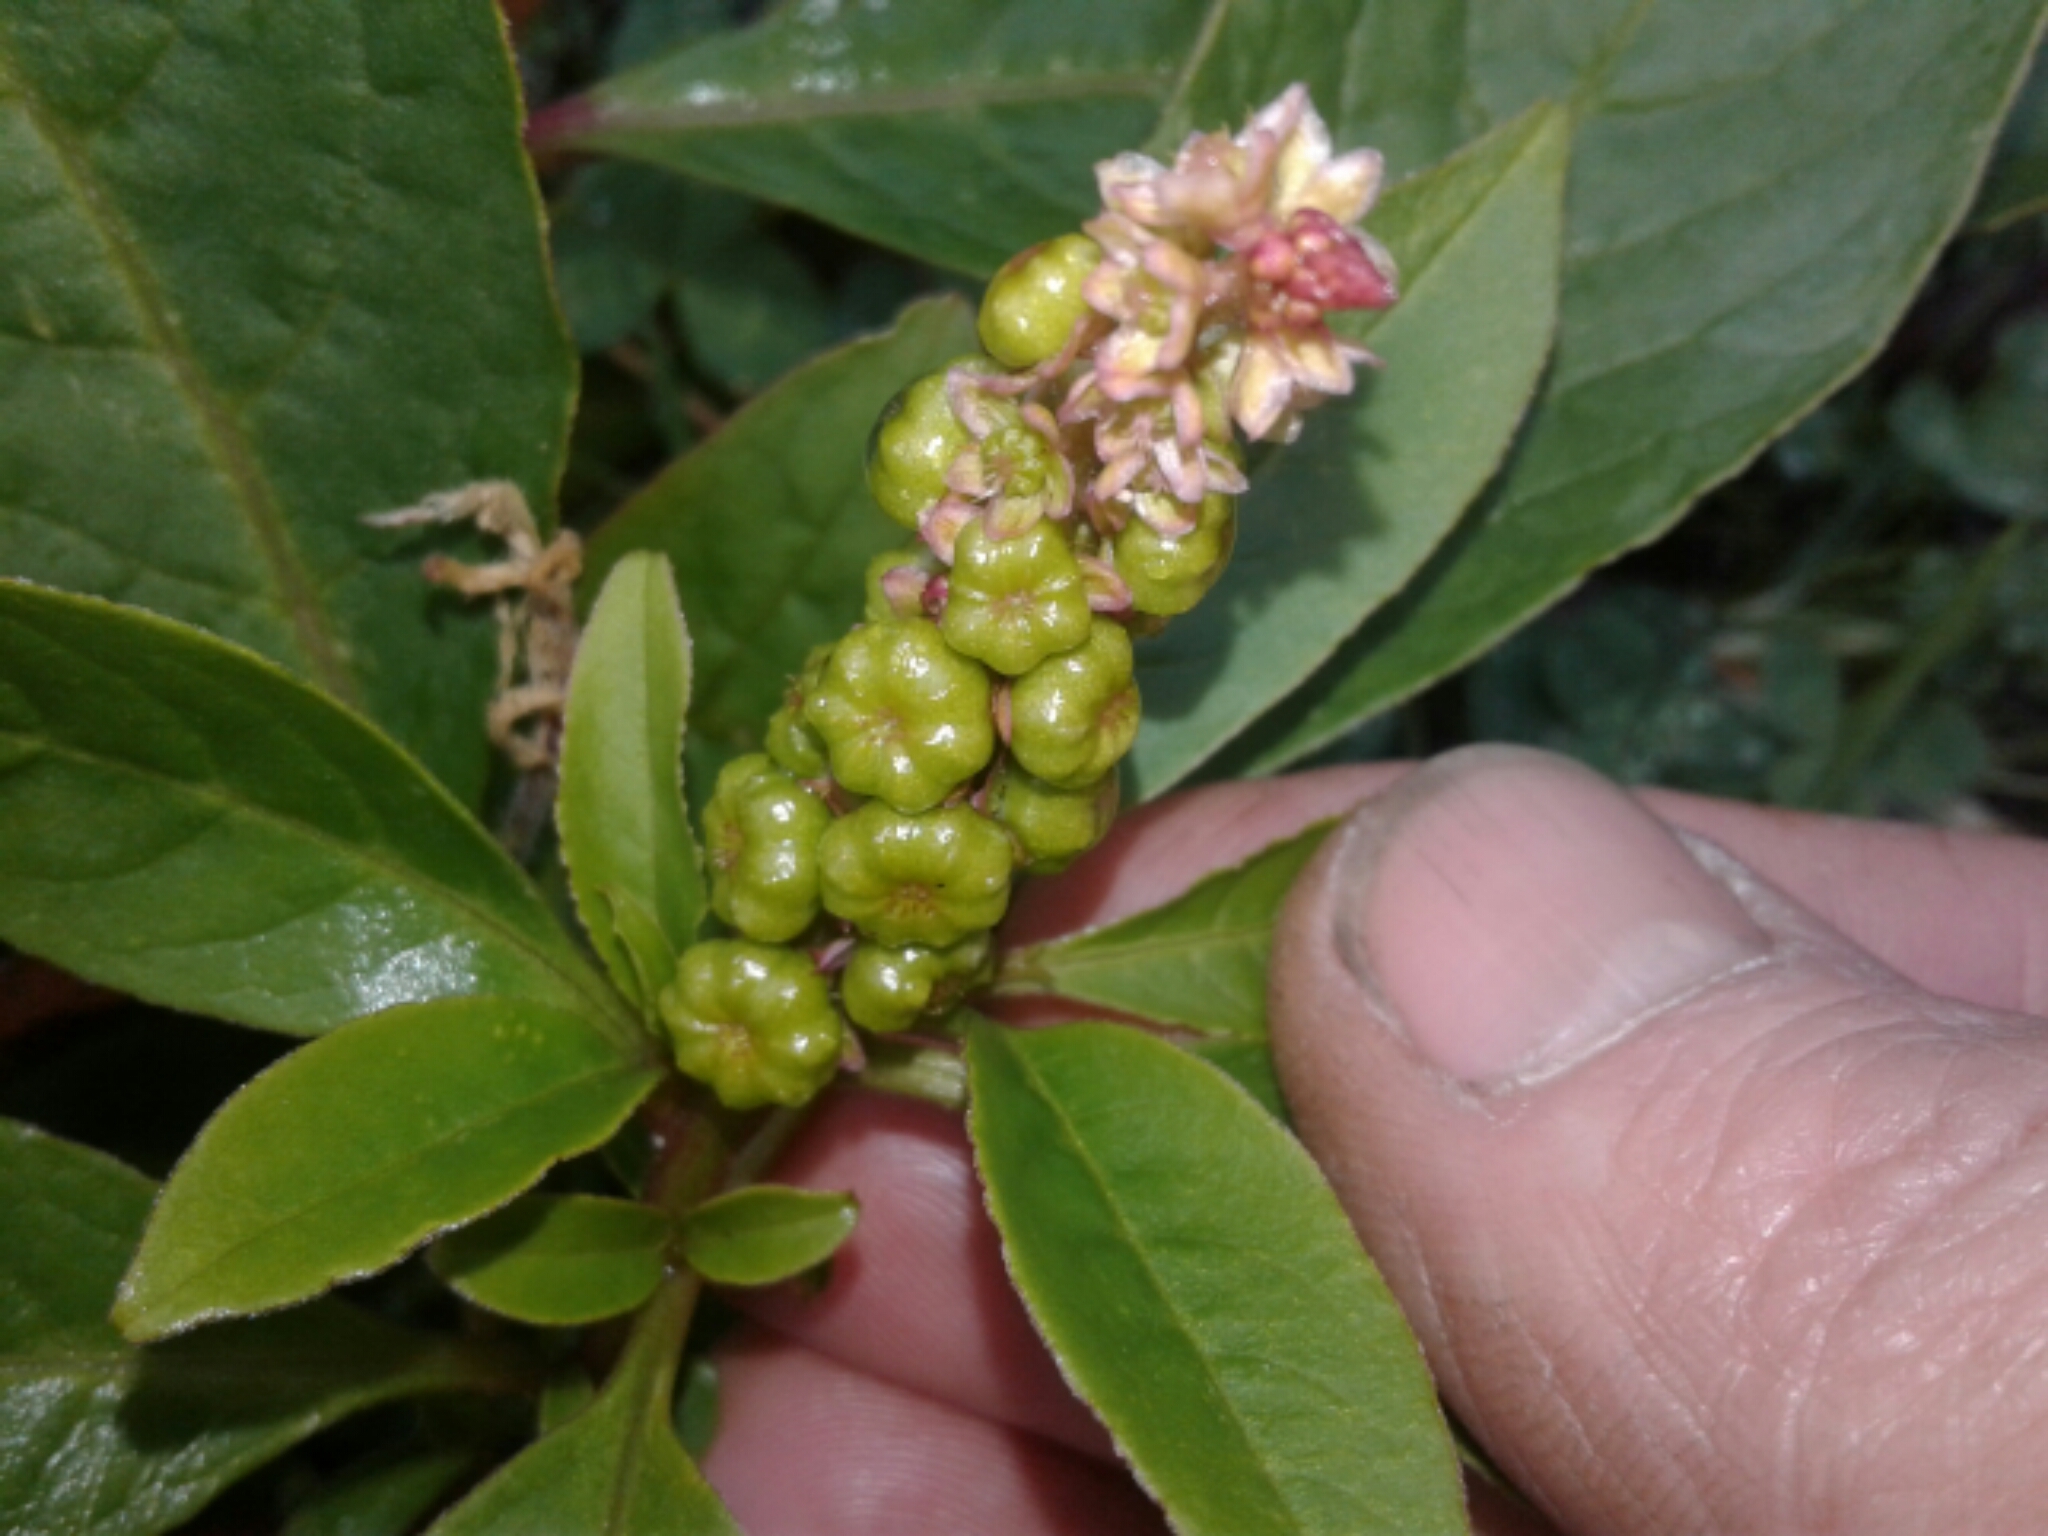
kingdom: Plantae
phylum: Tracheophyta
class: Magnoliopsida
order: Caryophyllales
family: Phytolaccaceae
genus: Phytolacca
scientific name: Phytolacca icosandra
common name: Button pokeweed
